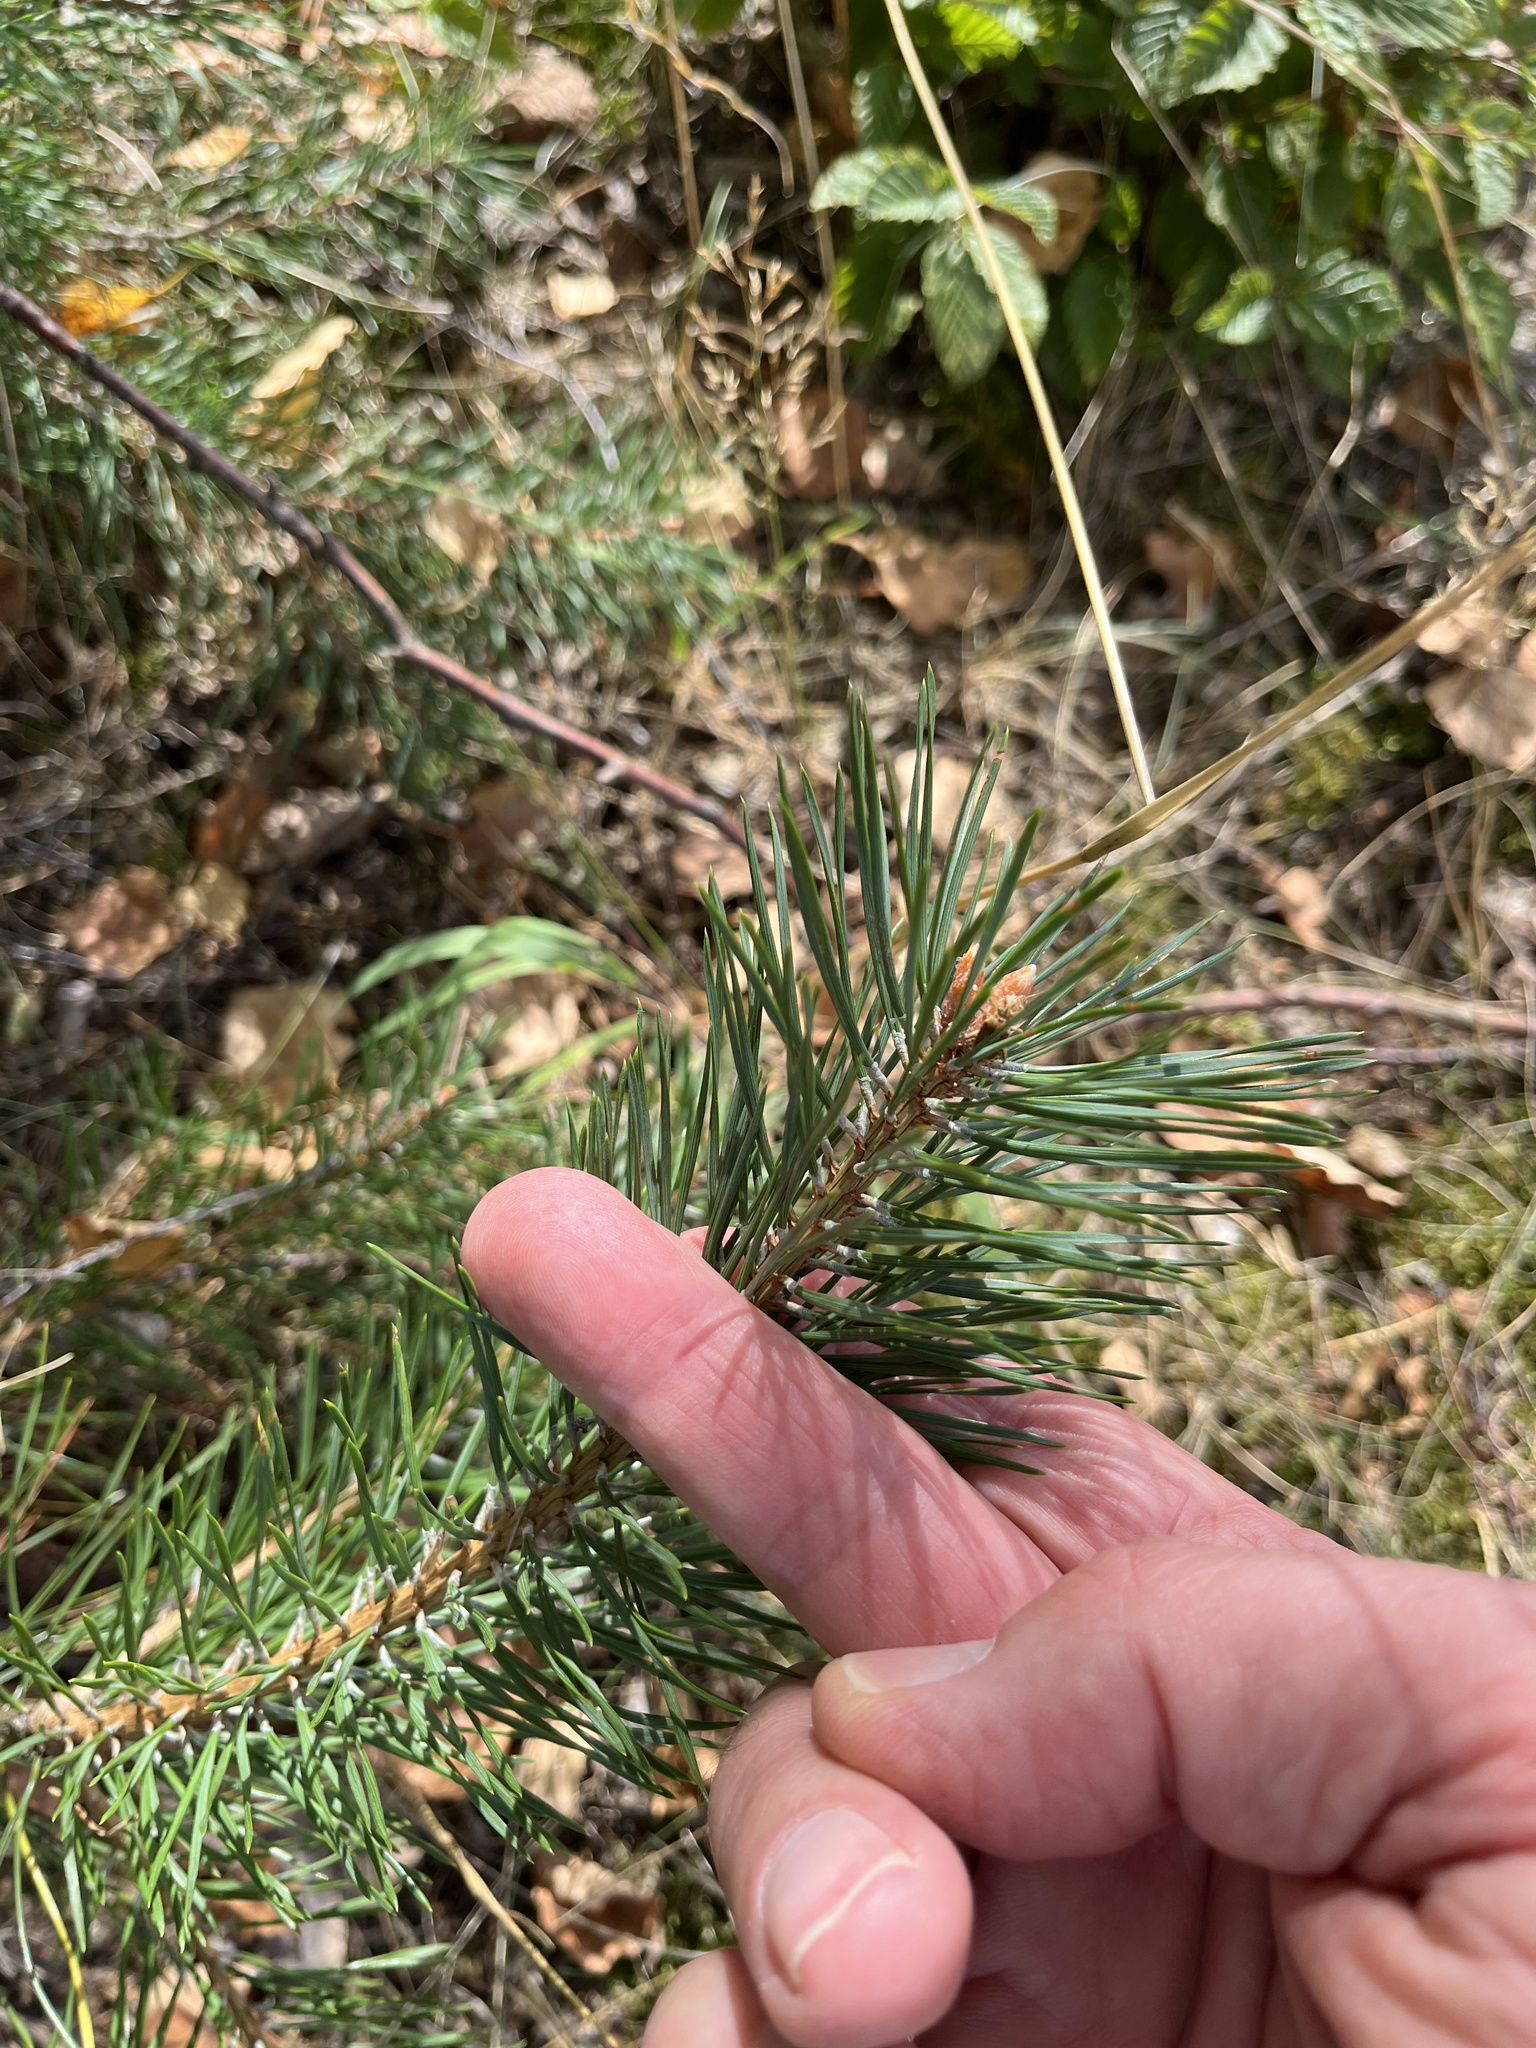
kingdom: Plantae
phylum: Tracheophyta
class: Pinopsida
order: Pinales
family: Pinaceae
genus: Pinus
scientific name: Pinus sylvestris
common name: Scots pine
